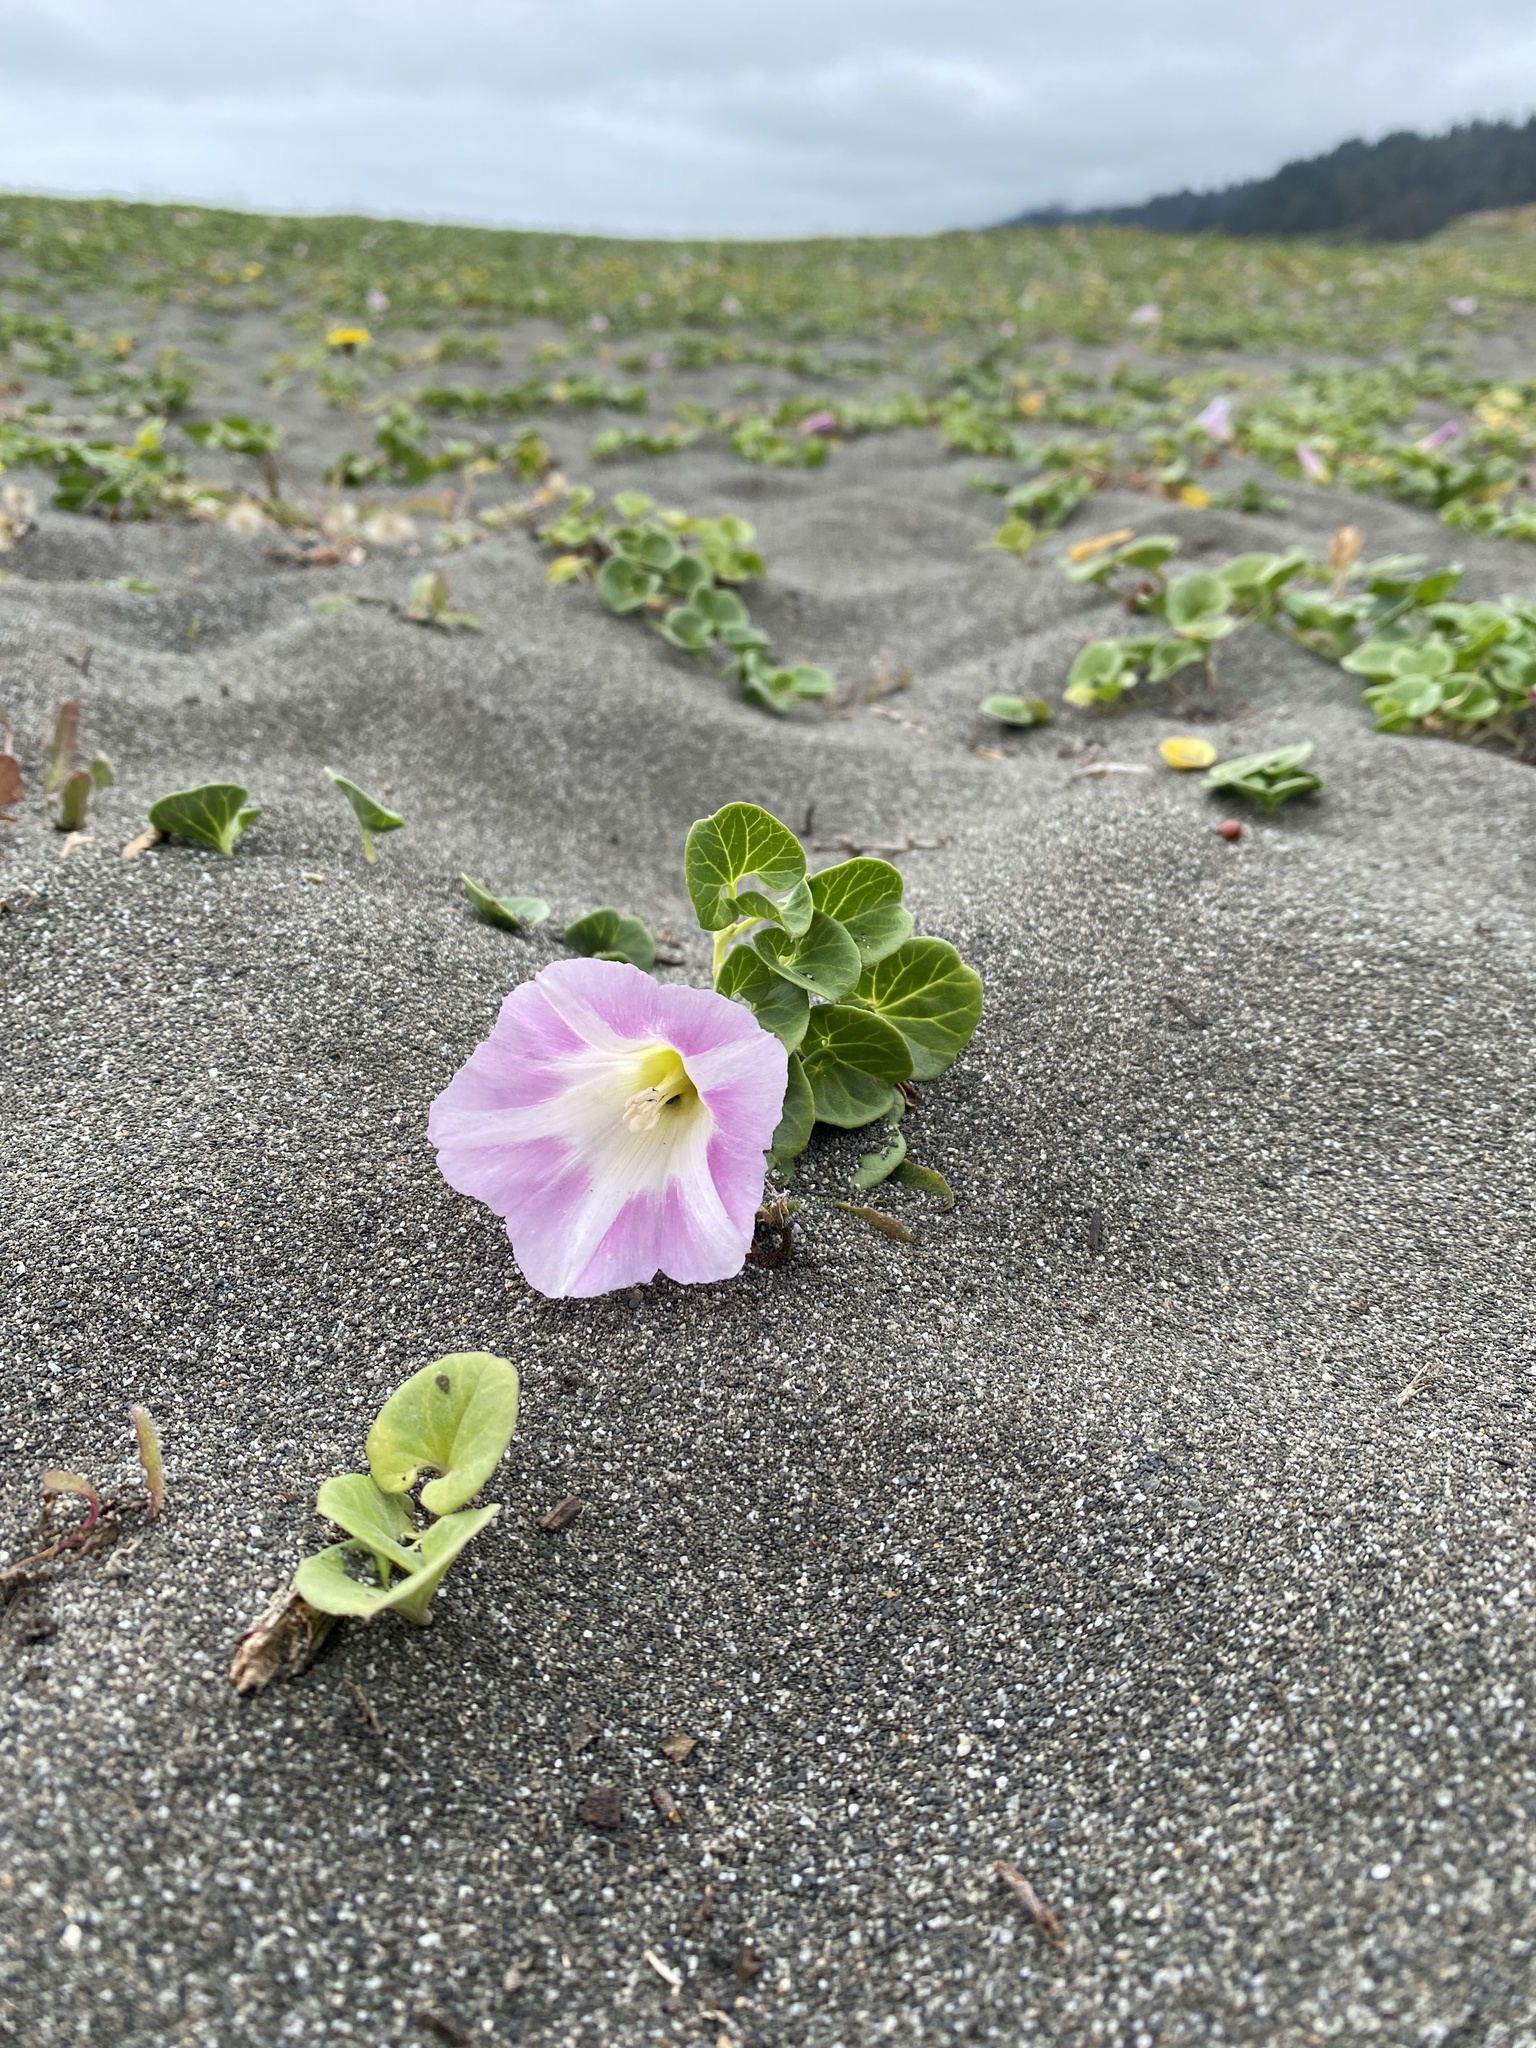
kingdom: Plantae
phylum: Tracheophyta
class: Magnoliopsida
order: Solanales
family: Convolvulaceae
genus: Calystegia
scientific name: Calystegia soldanella
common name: Sea bindweed
